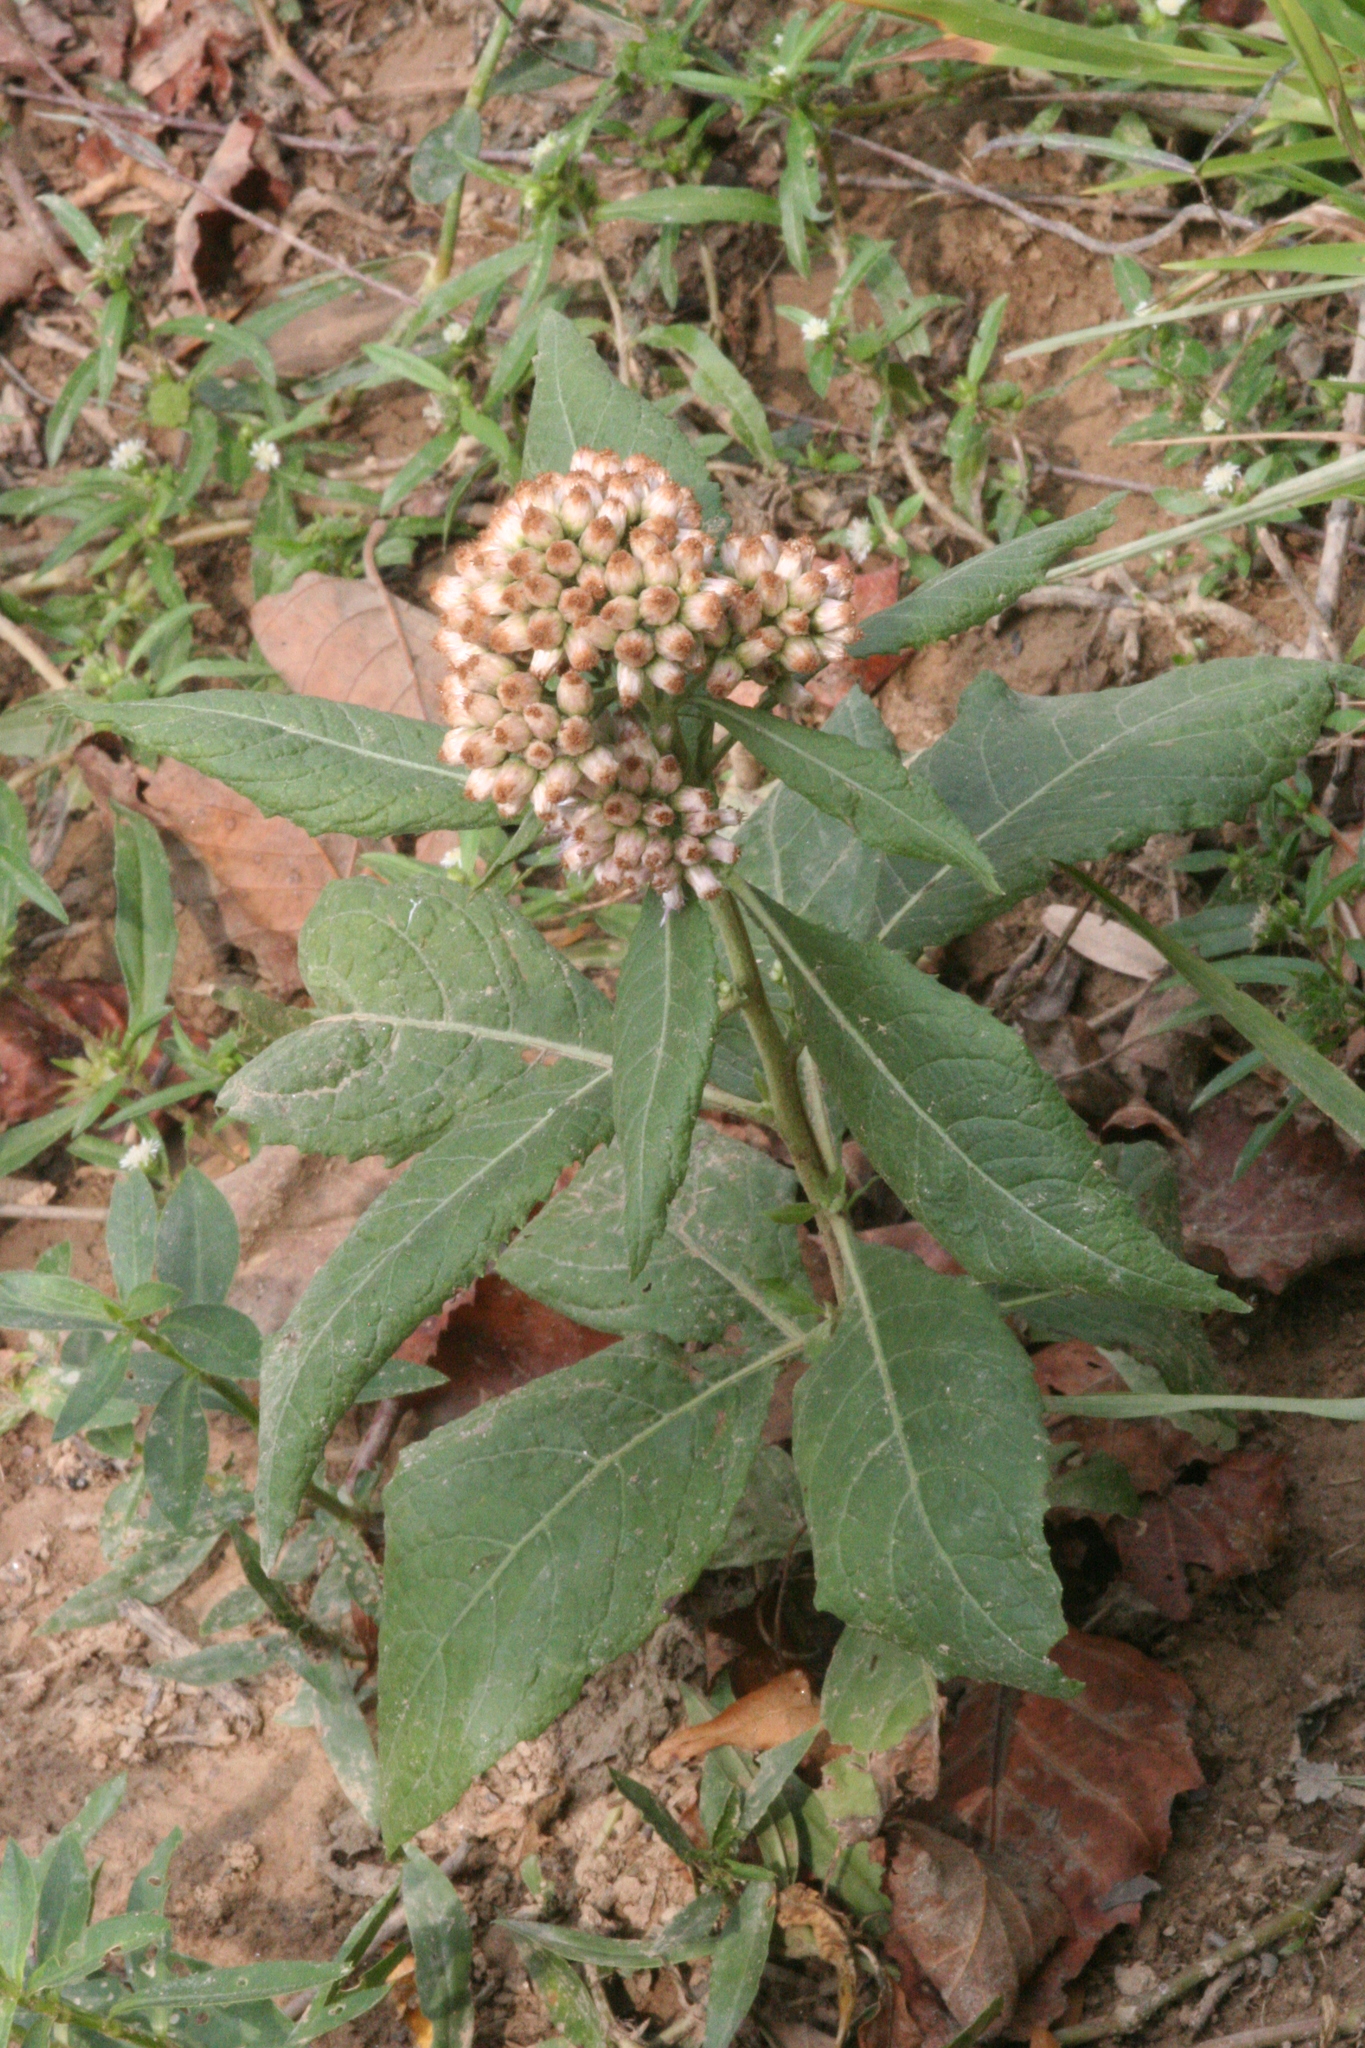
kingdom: Plantae
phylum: Tracheophyta
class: Magnoliopsida
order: Asterales
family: Asteraceae
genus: Pluchea
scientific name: Pluchea camphorata
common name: Camphor pluchea
